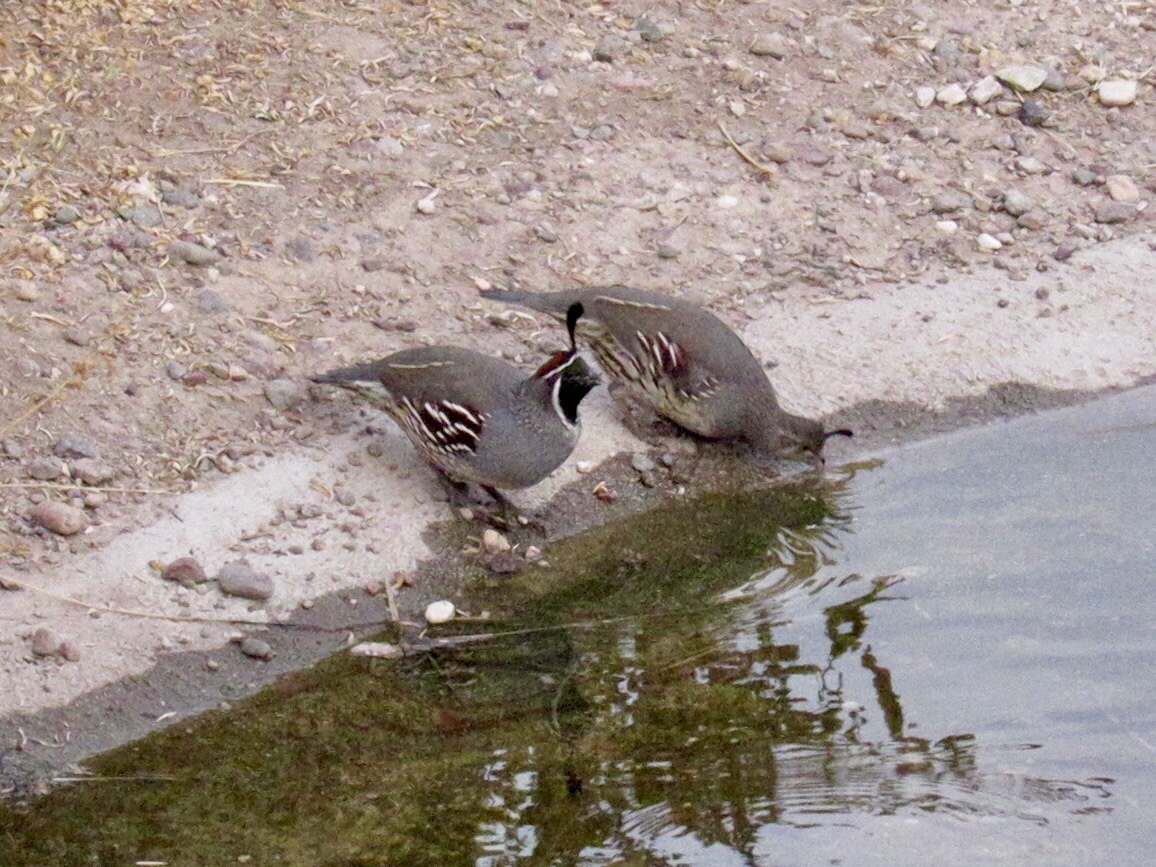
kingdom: Animalia
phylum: Chordata
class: Aves
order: Galliformes
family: Odontophoridae
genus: Callipepla
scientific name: Callipepla gambelii
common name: Gambel's quail
